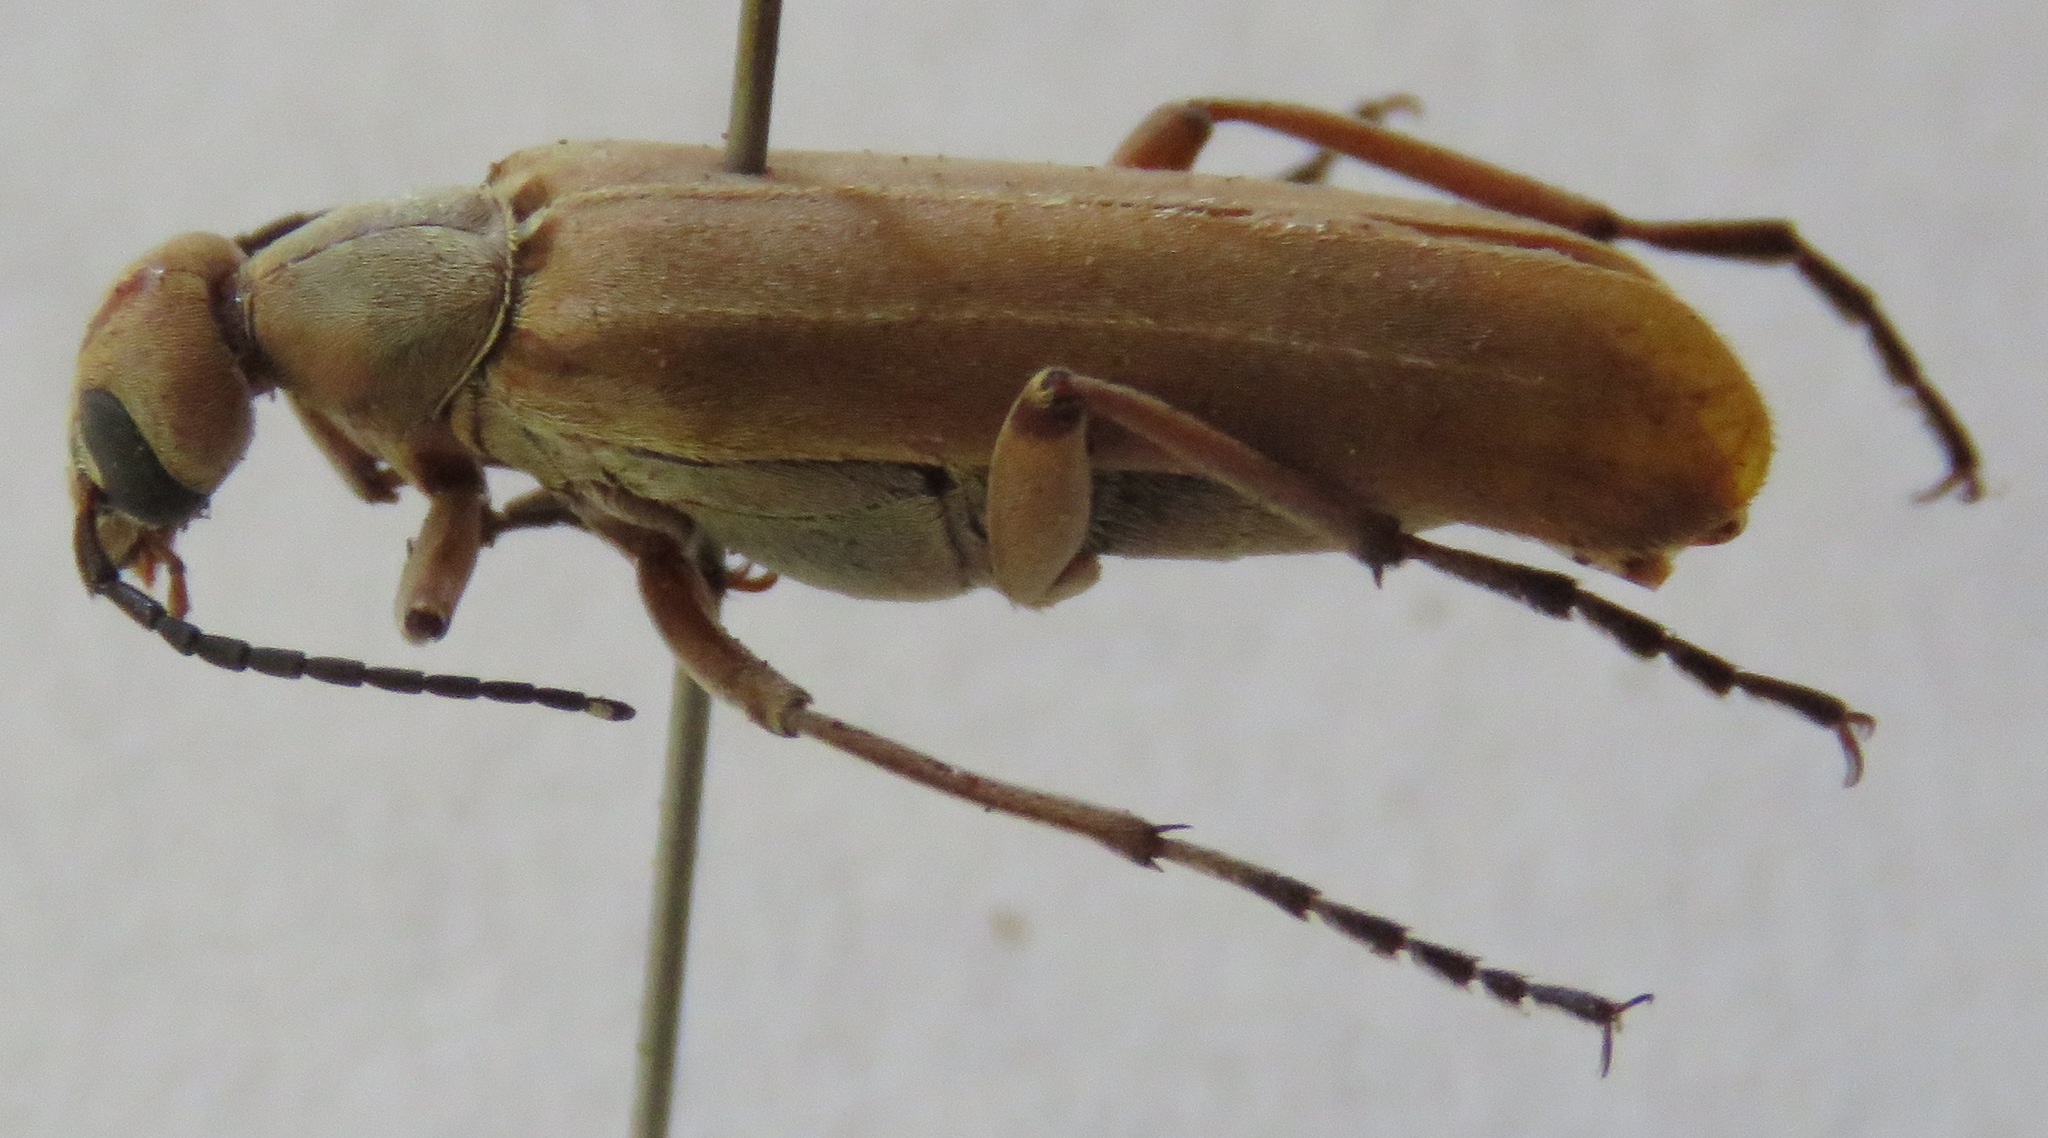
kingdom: Animalia
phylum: Arthropoda
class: Insecta
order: Coleoptera
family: Meloidae
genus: Epicauta
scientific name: Epicauta distorta
